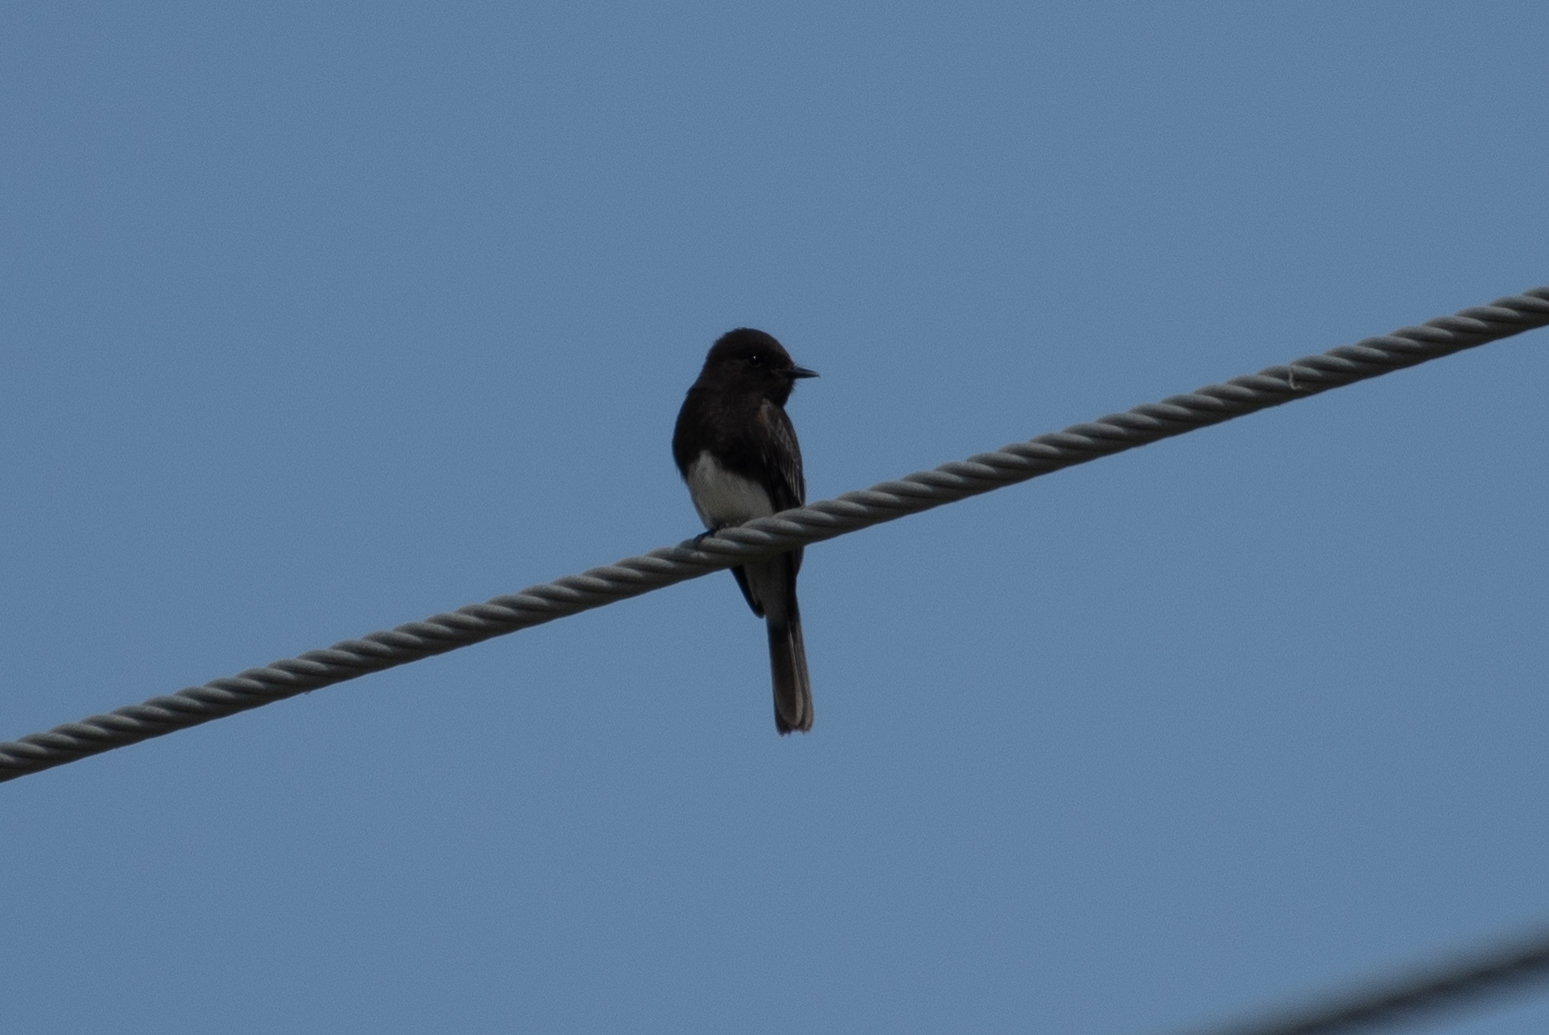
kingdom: Animalia
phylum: Chordata
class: Aves
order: Passeriformes
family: Tyrannidae
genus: Sayornis
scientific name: Sayornis nigricans
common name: Black phoebe
